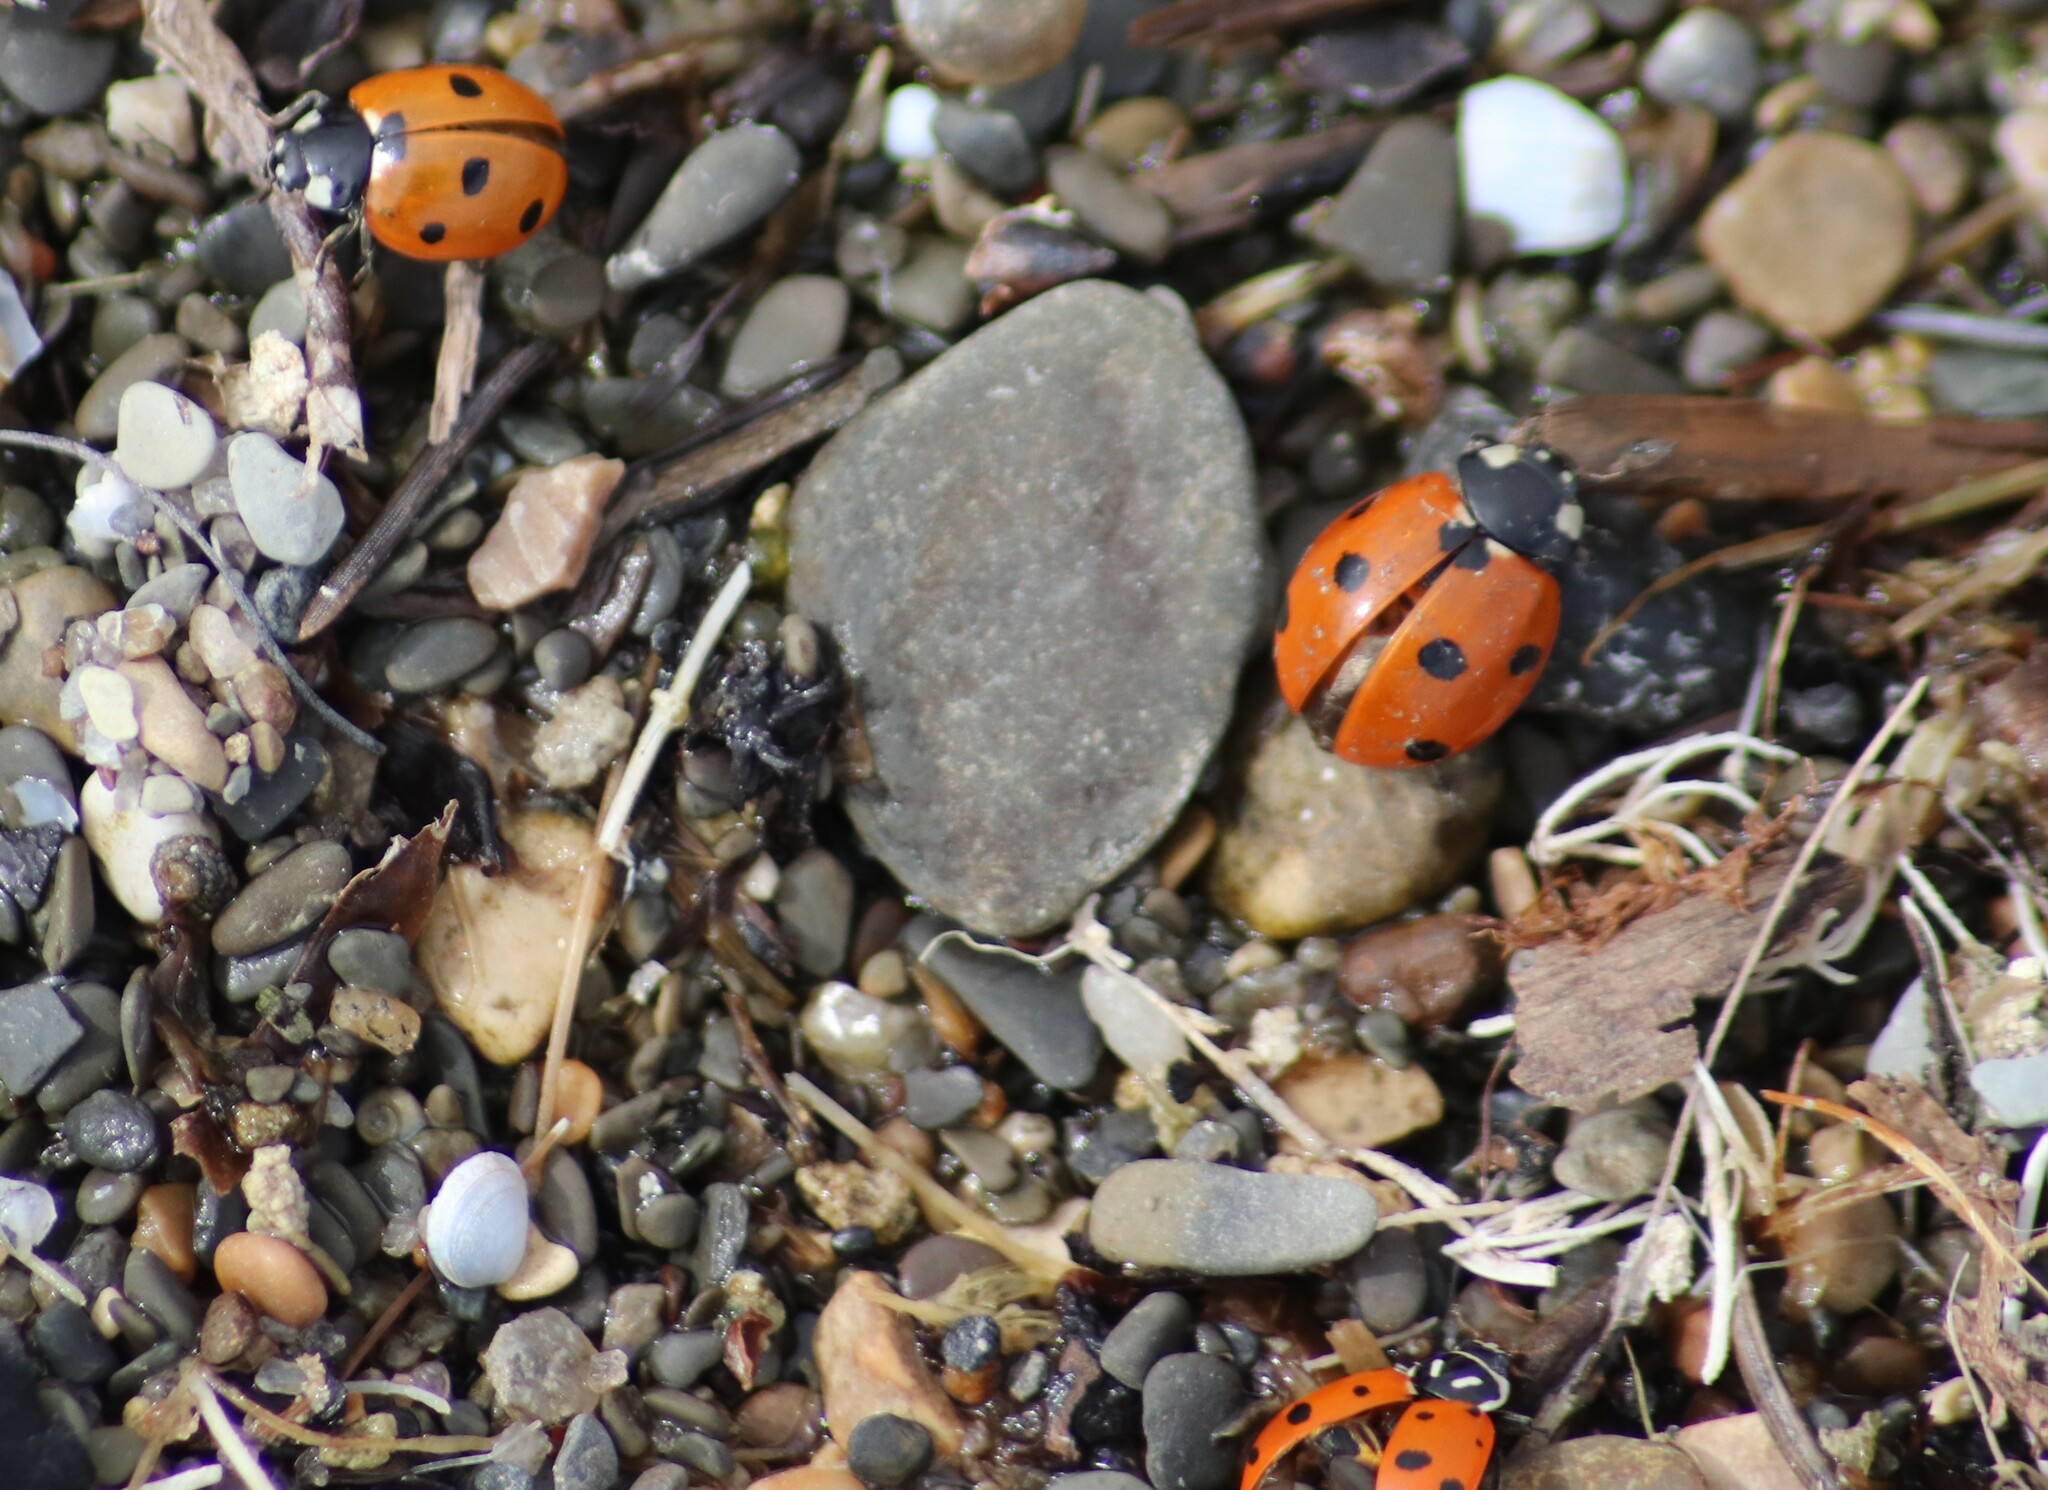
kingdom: Animalia
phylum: Arthropoda
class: Insecta
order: Coleoptera
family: Coccinellidae
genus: Coccinella
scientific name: Coccinella septempunctata
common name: Sevenspotted lady beetle
